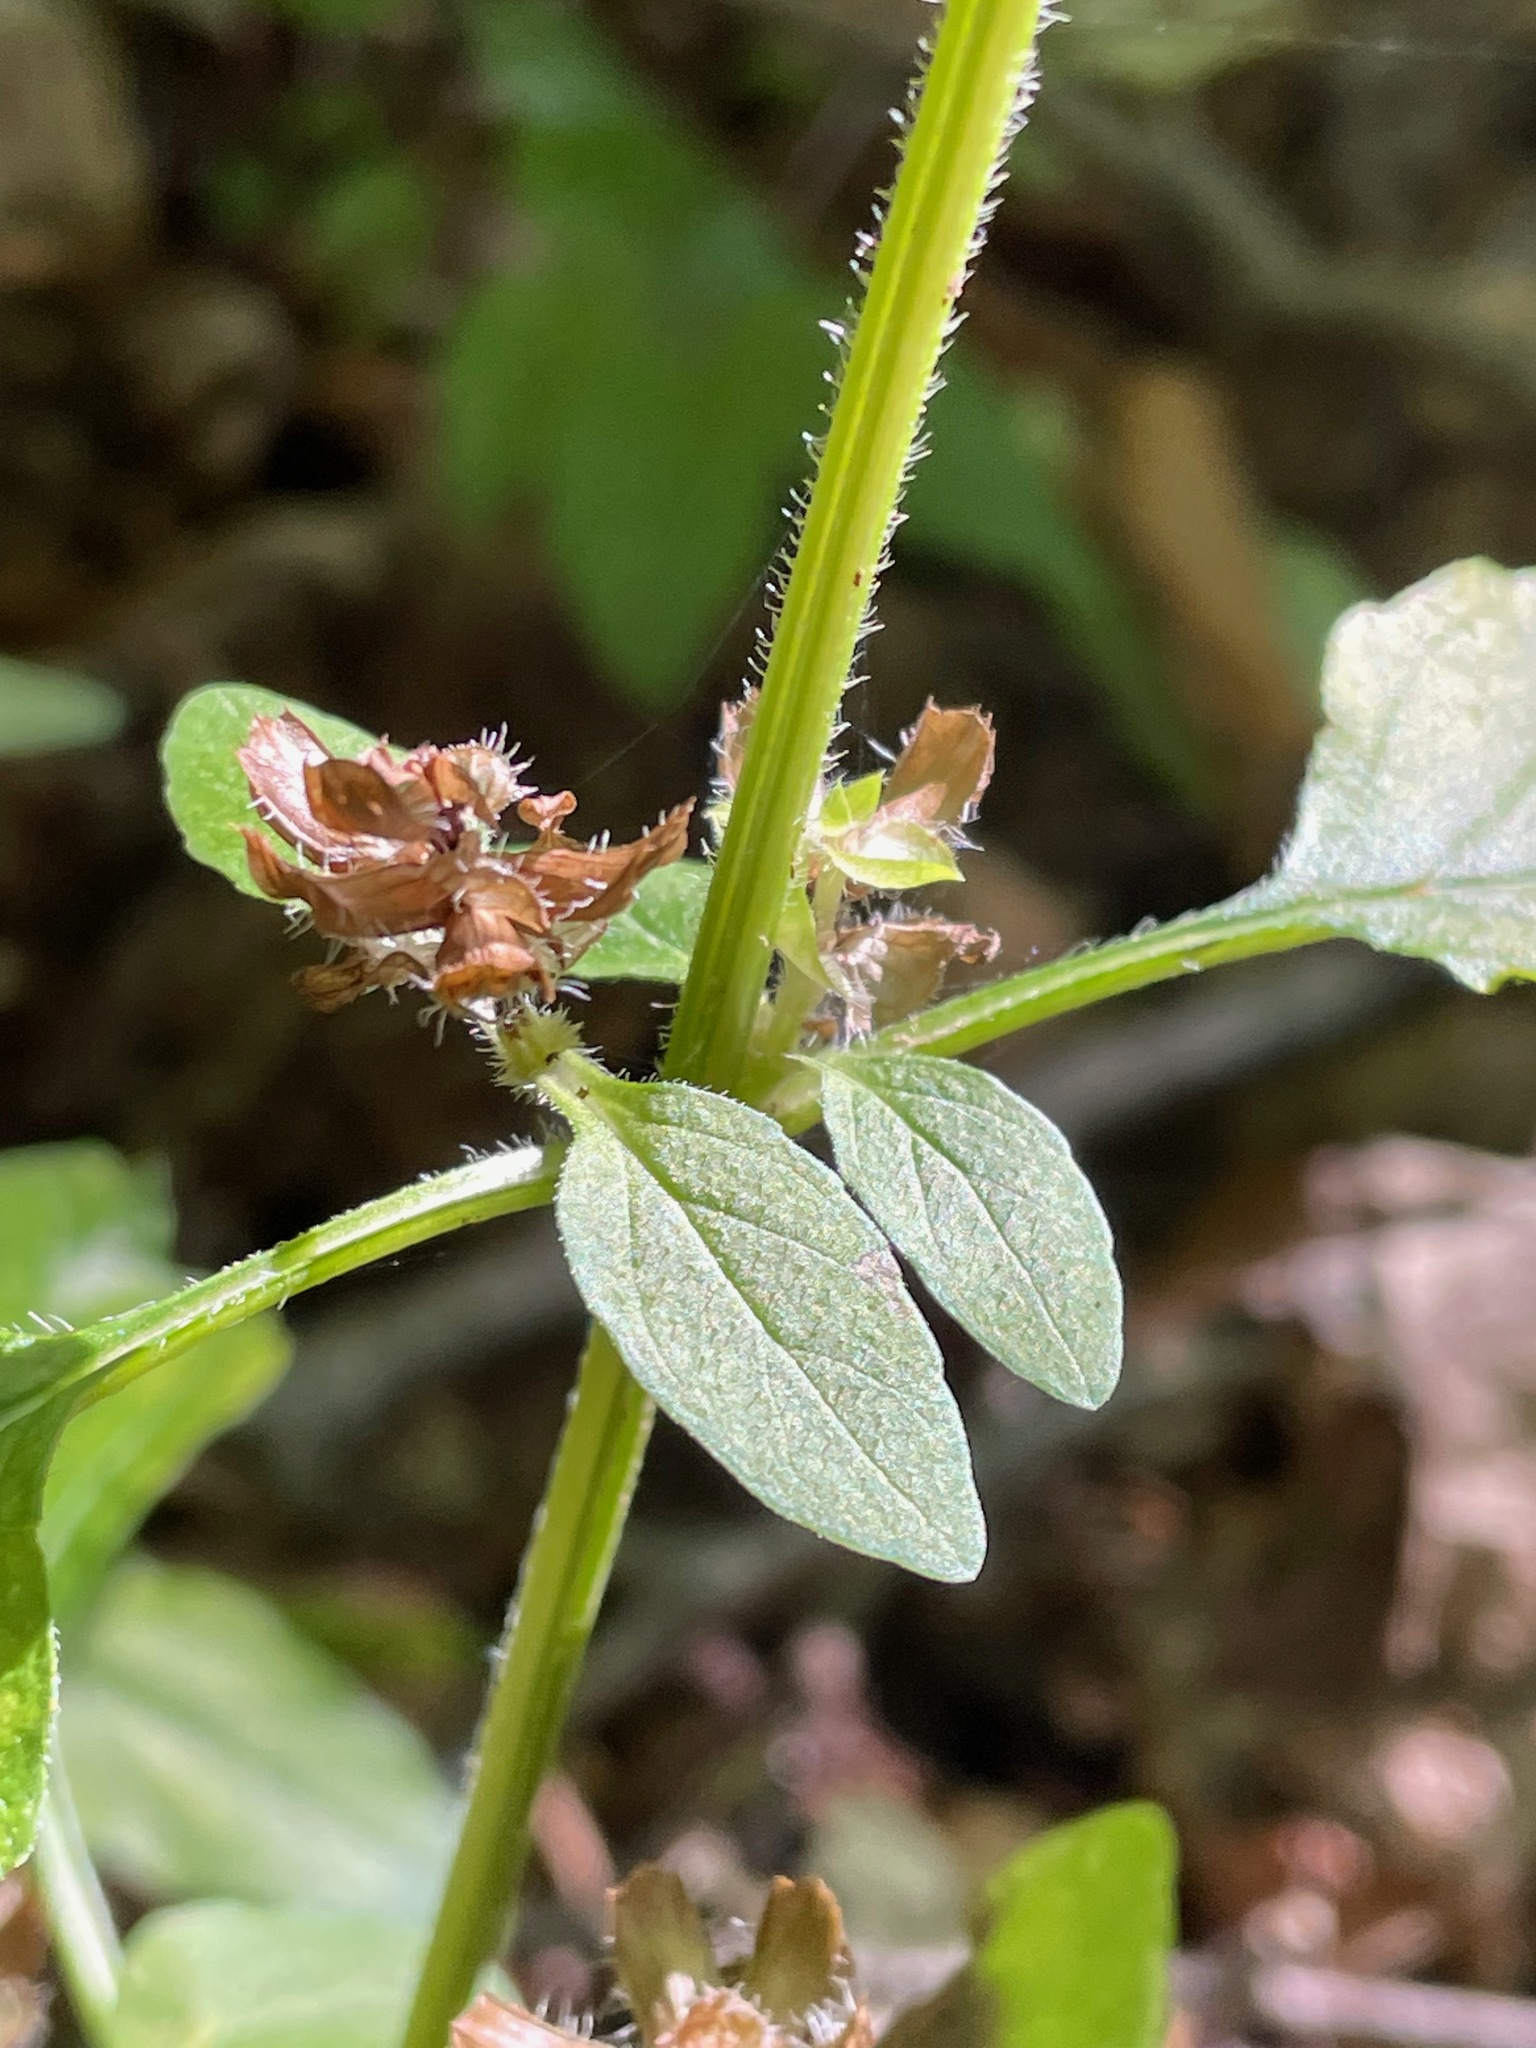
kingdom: Plantae
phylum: Tracheophyta
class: Magnoliopsida
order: Lamiales
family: Lamiaceae
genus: Prunella
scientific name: Prunella vulgaris
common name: Heal-all
